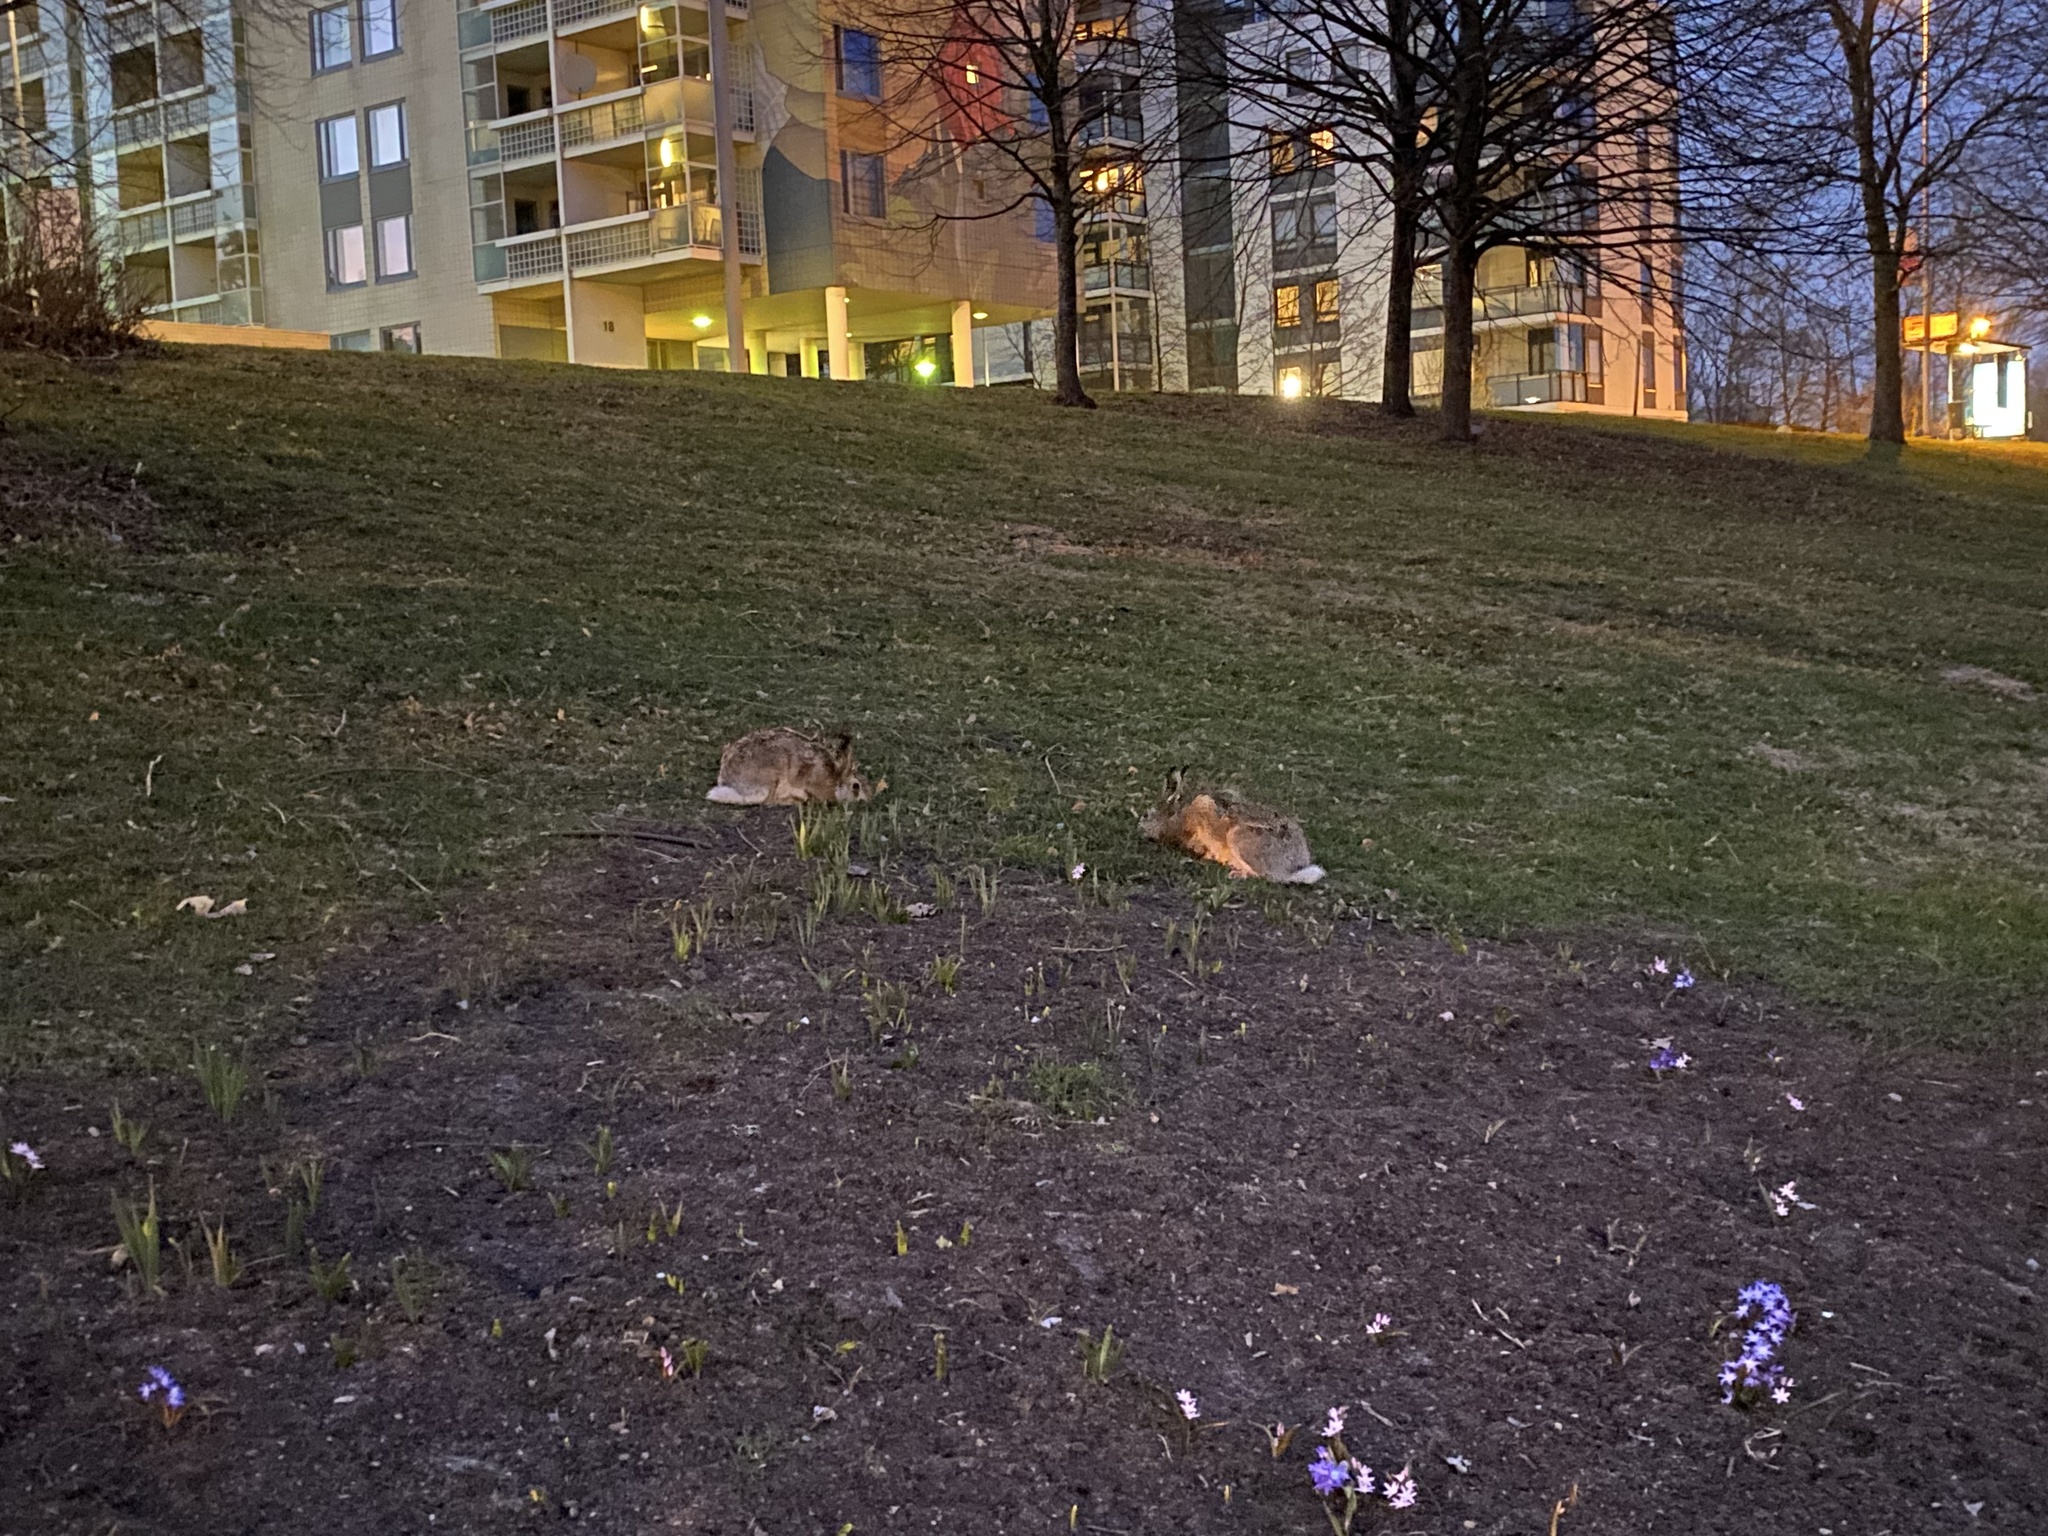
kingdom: Animalia
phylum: Chordata
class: Mammalia
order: Lagomorpha
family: Leporidae
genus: Lepus
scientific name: Lepus europaeus
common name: European hare
